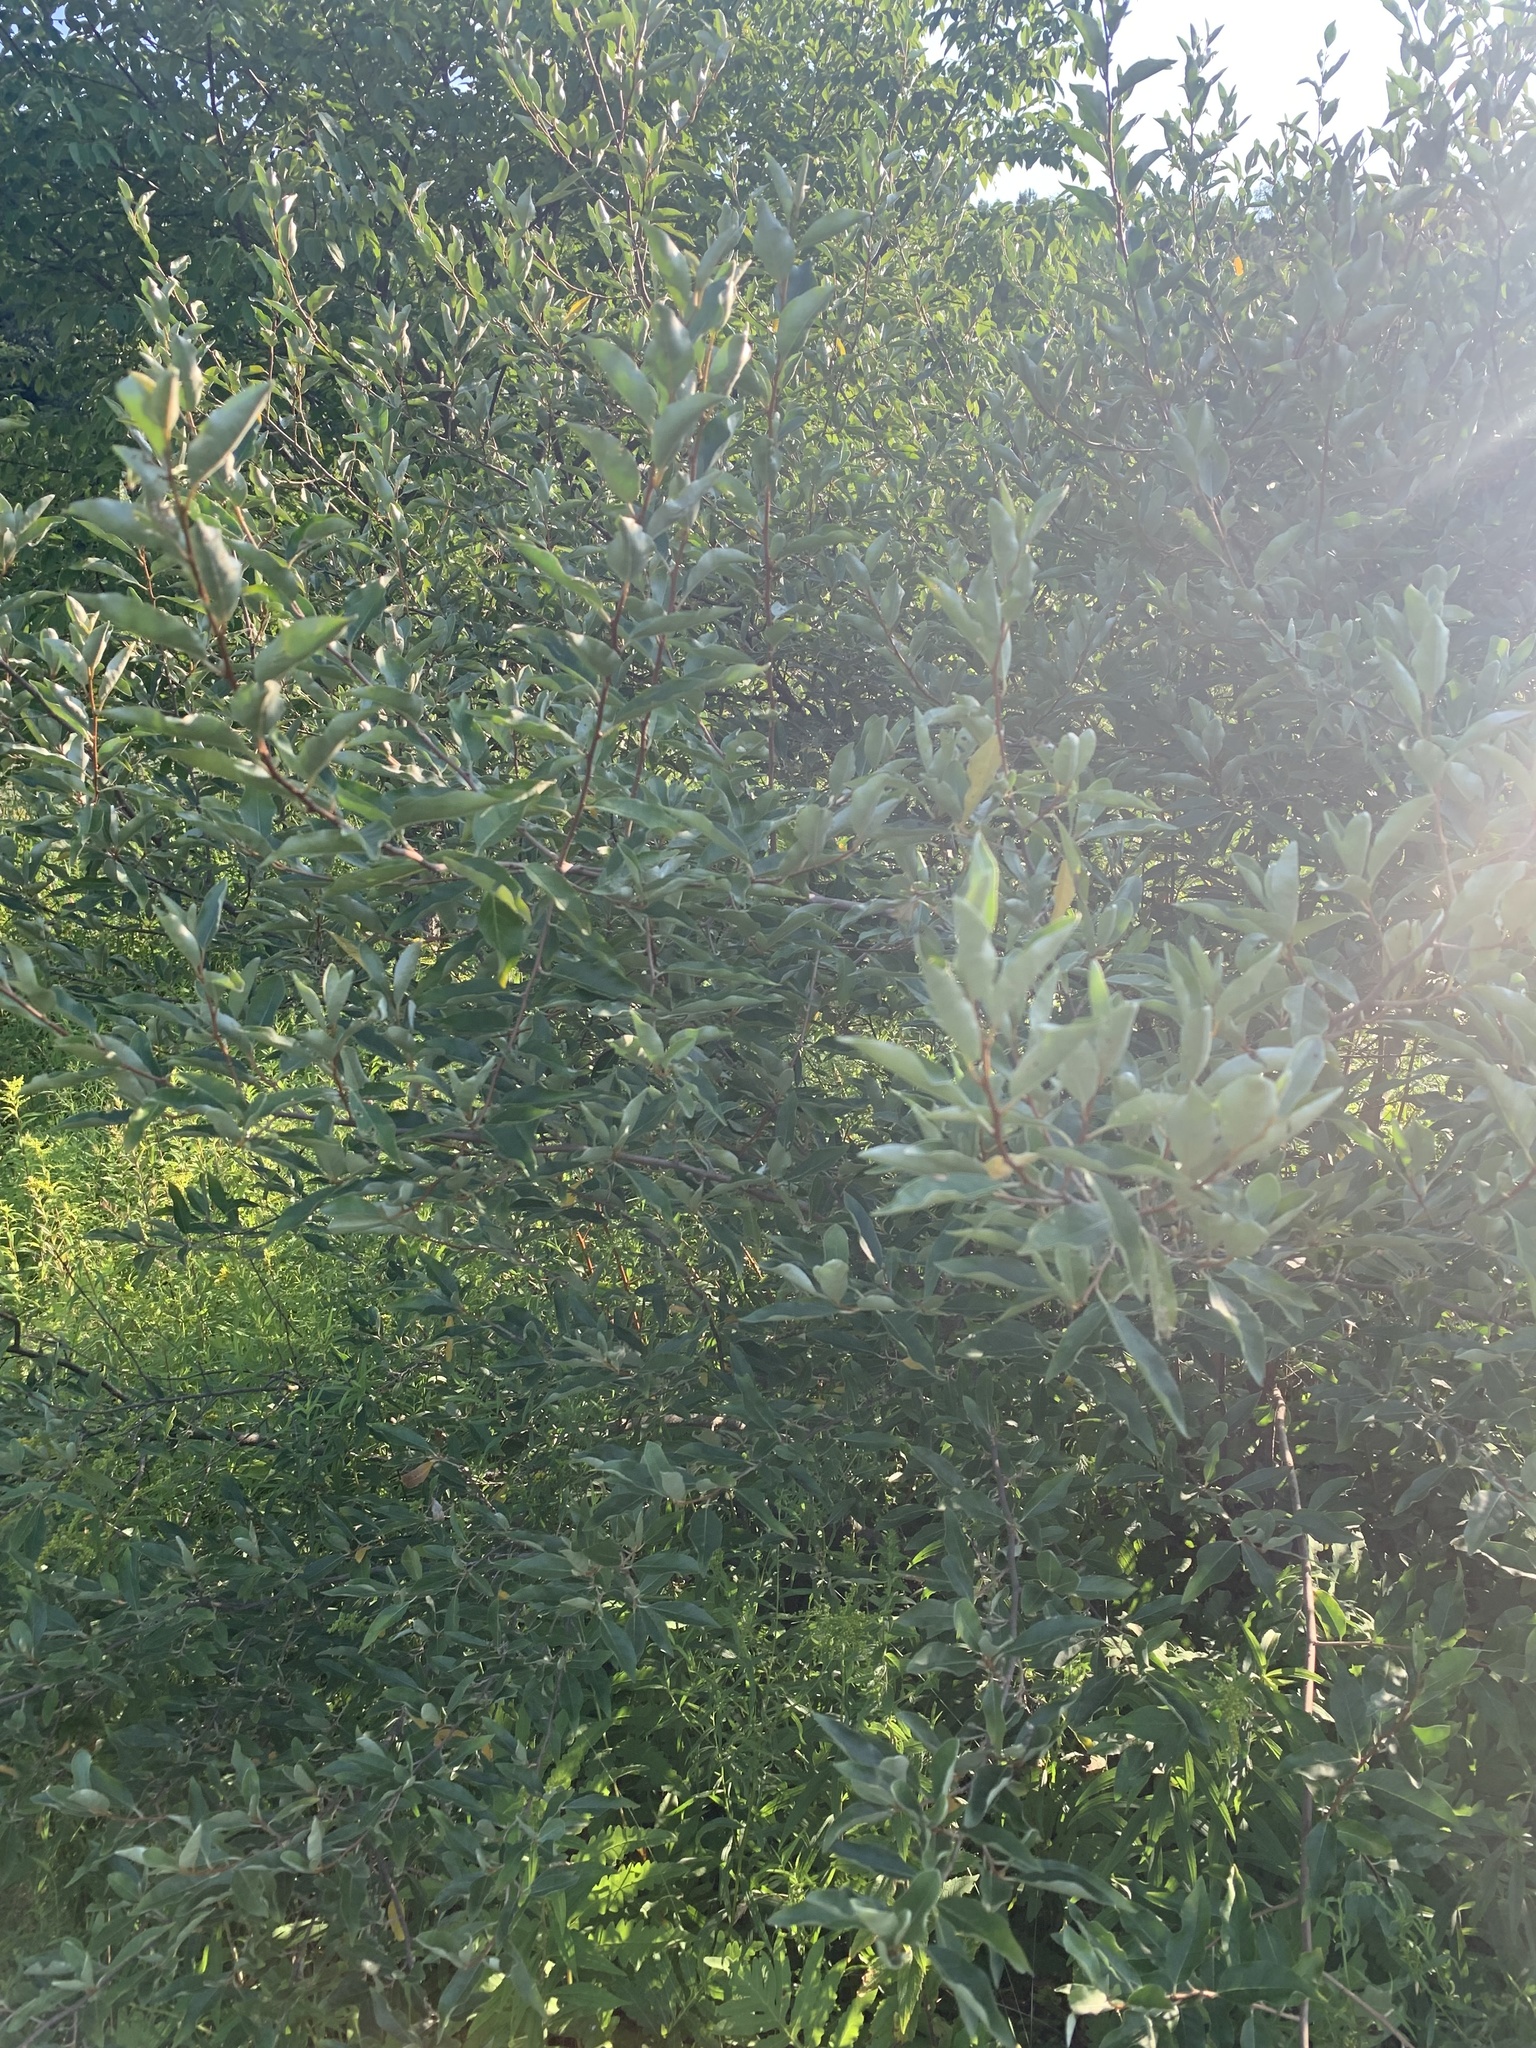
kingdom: Plantae
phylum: Tracheophyta
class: Magnoliopsida
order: Rosales
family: Elaeagnaceae
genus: Elaeagnus
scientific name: Elaeagnus umbellata
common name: Autumn olive
